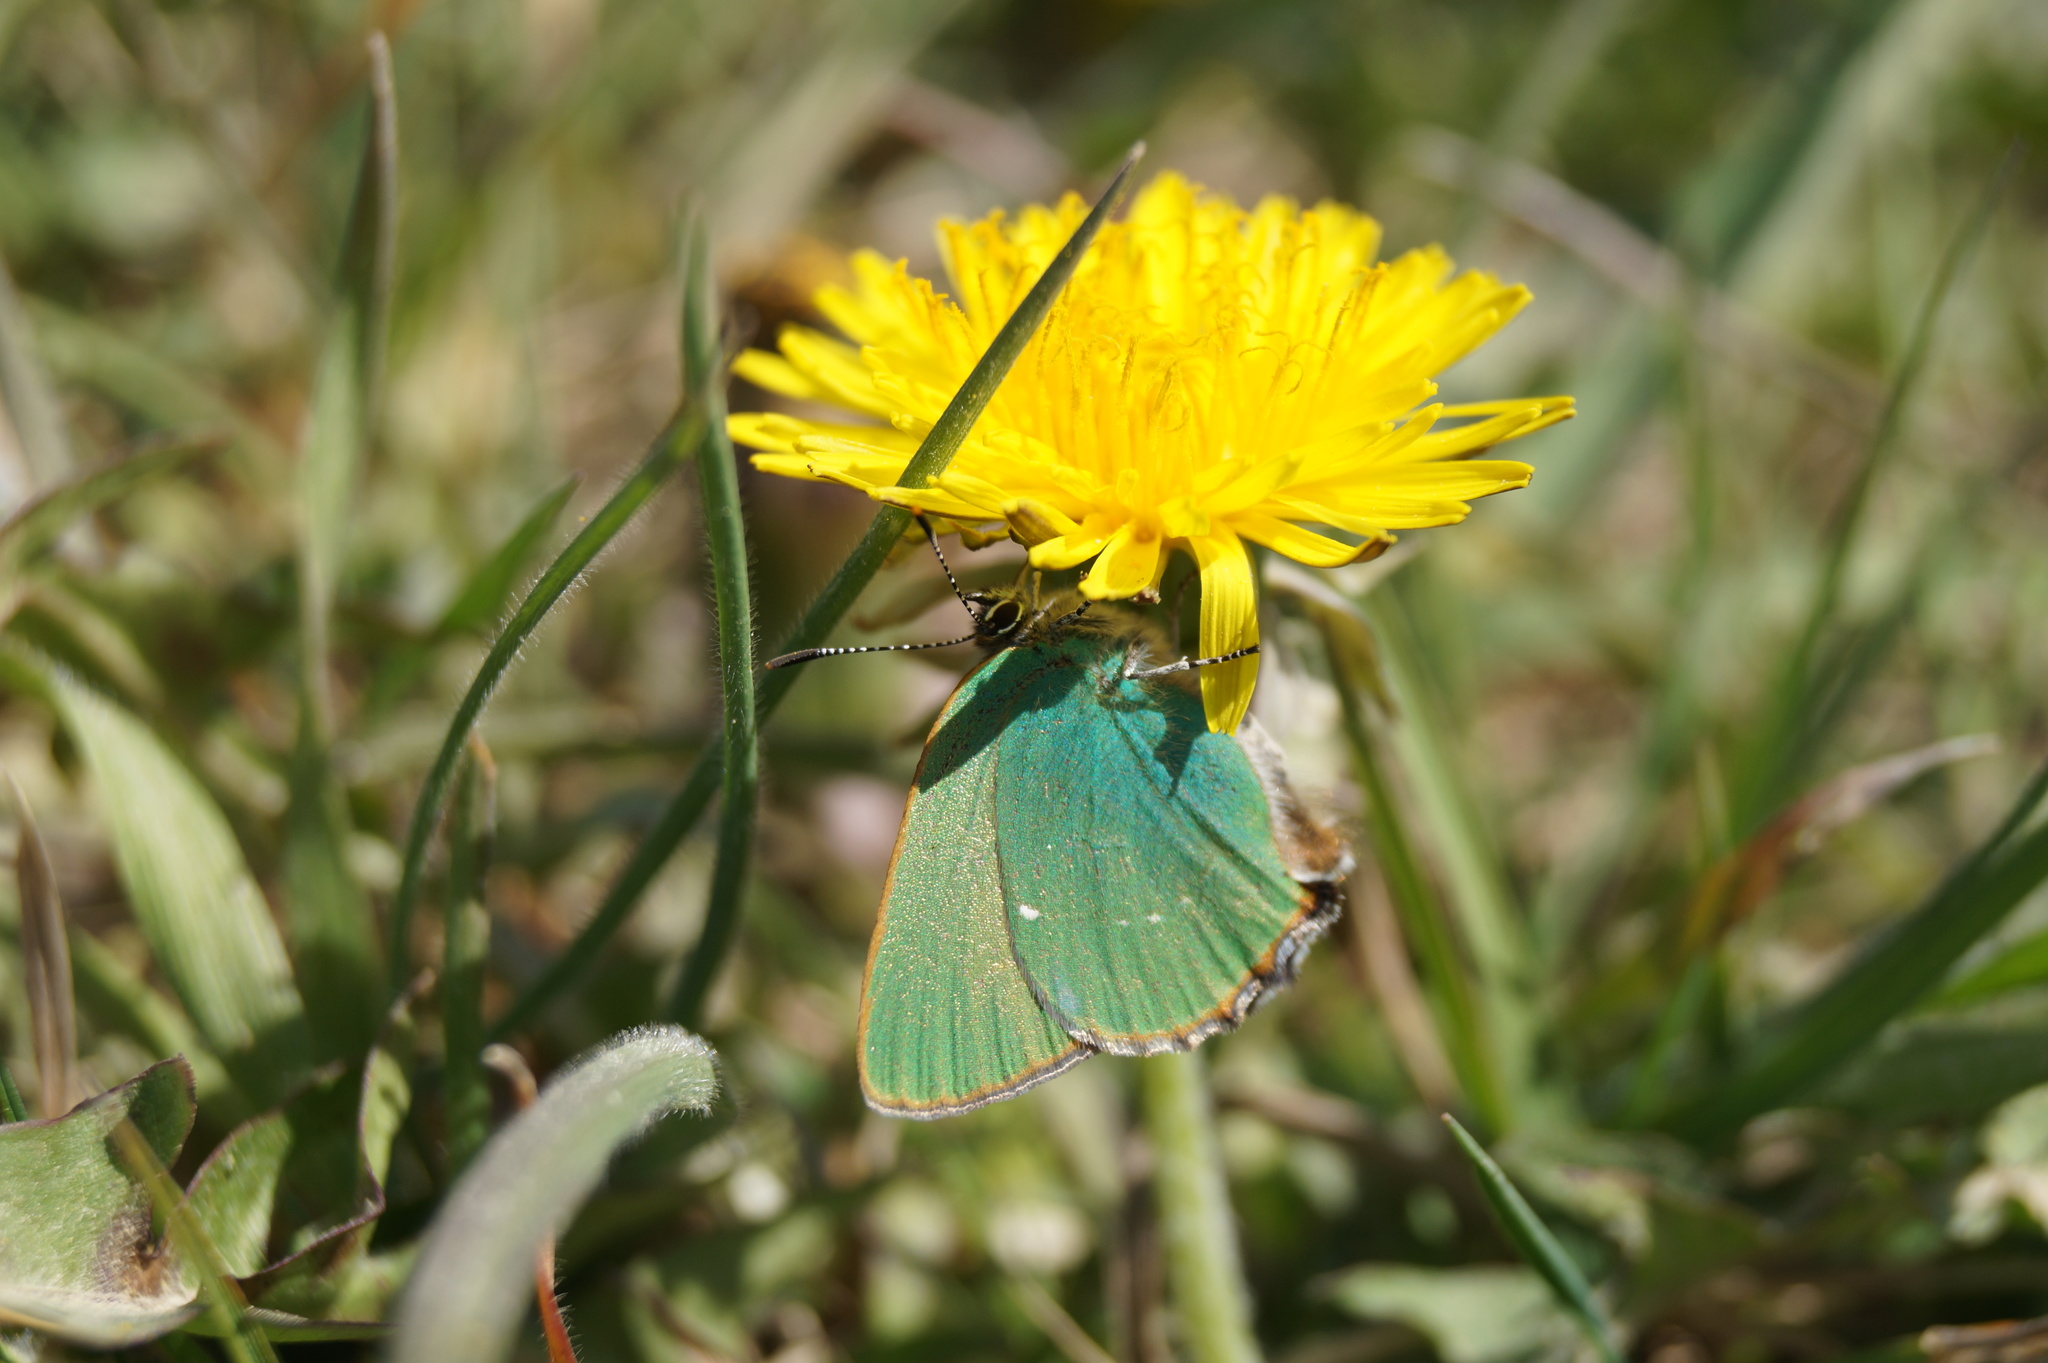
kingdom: Animalia
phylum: Arthropoda
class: Insecta
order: Lepidoptera
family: Lycaenidae
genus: Callophrys
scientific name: Callophrys rubi
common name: Green hairstreak
